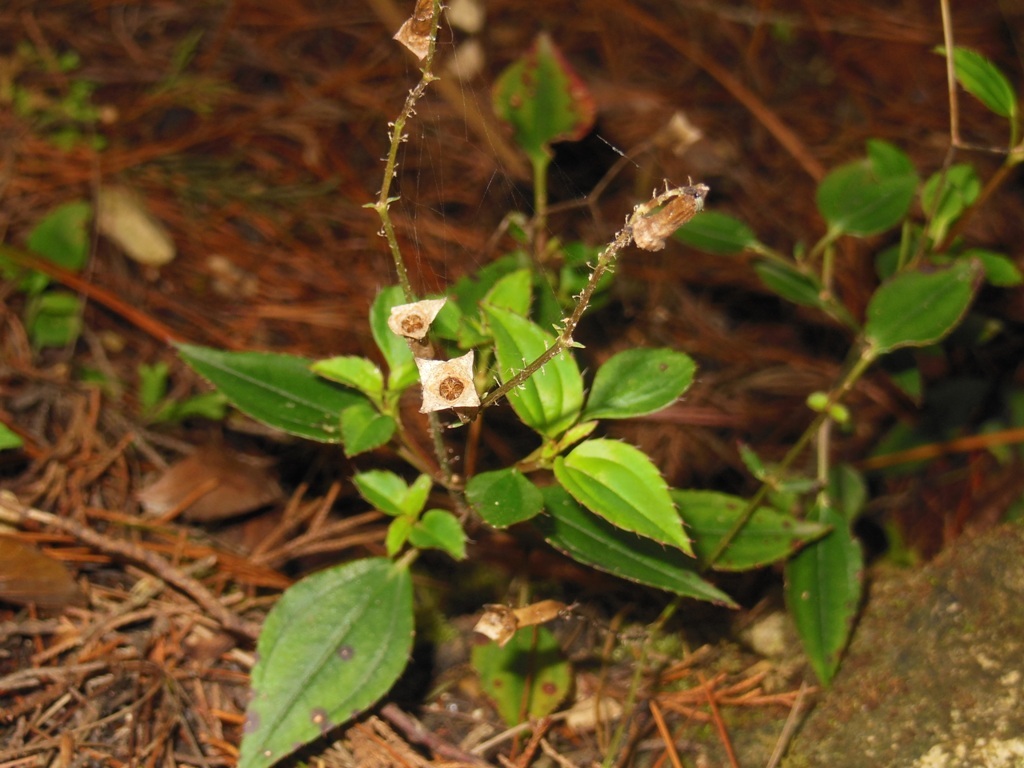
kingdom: Plantae
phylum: Tracheophyta
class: Magnoliopsida
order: Myrtales
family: Melastomataceae
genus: Arthrostemma
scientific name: Arthrostemma parvifolium
